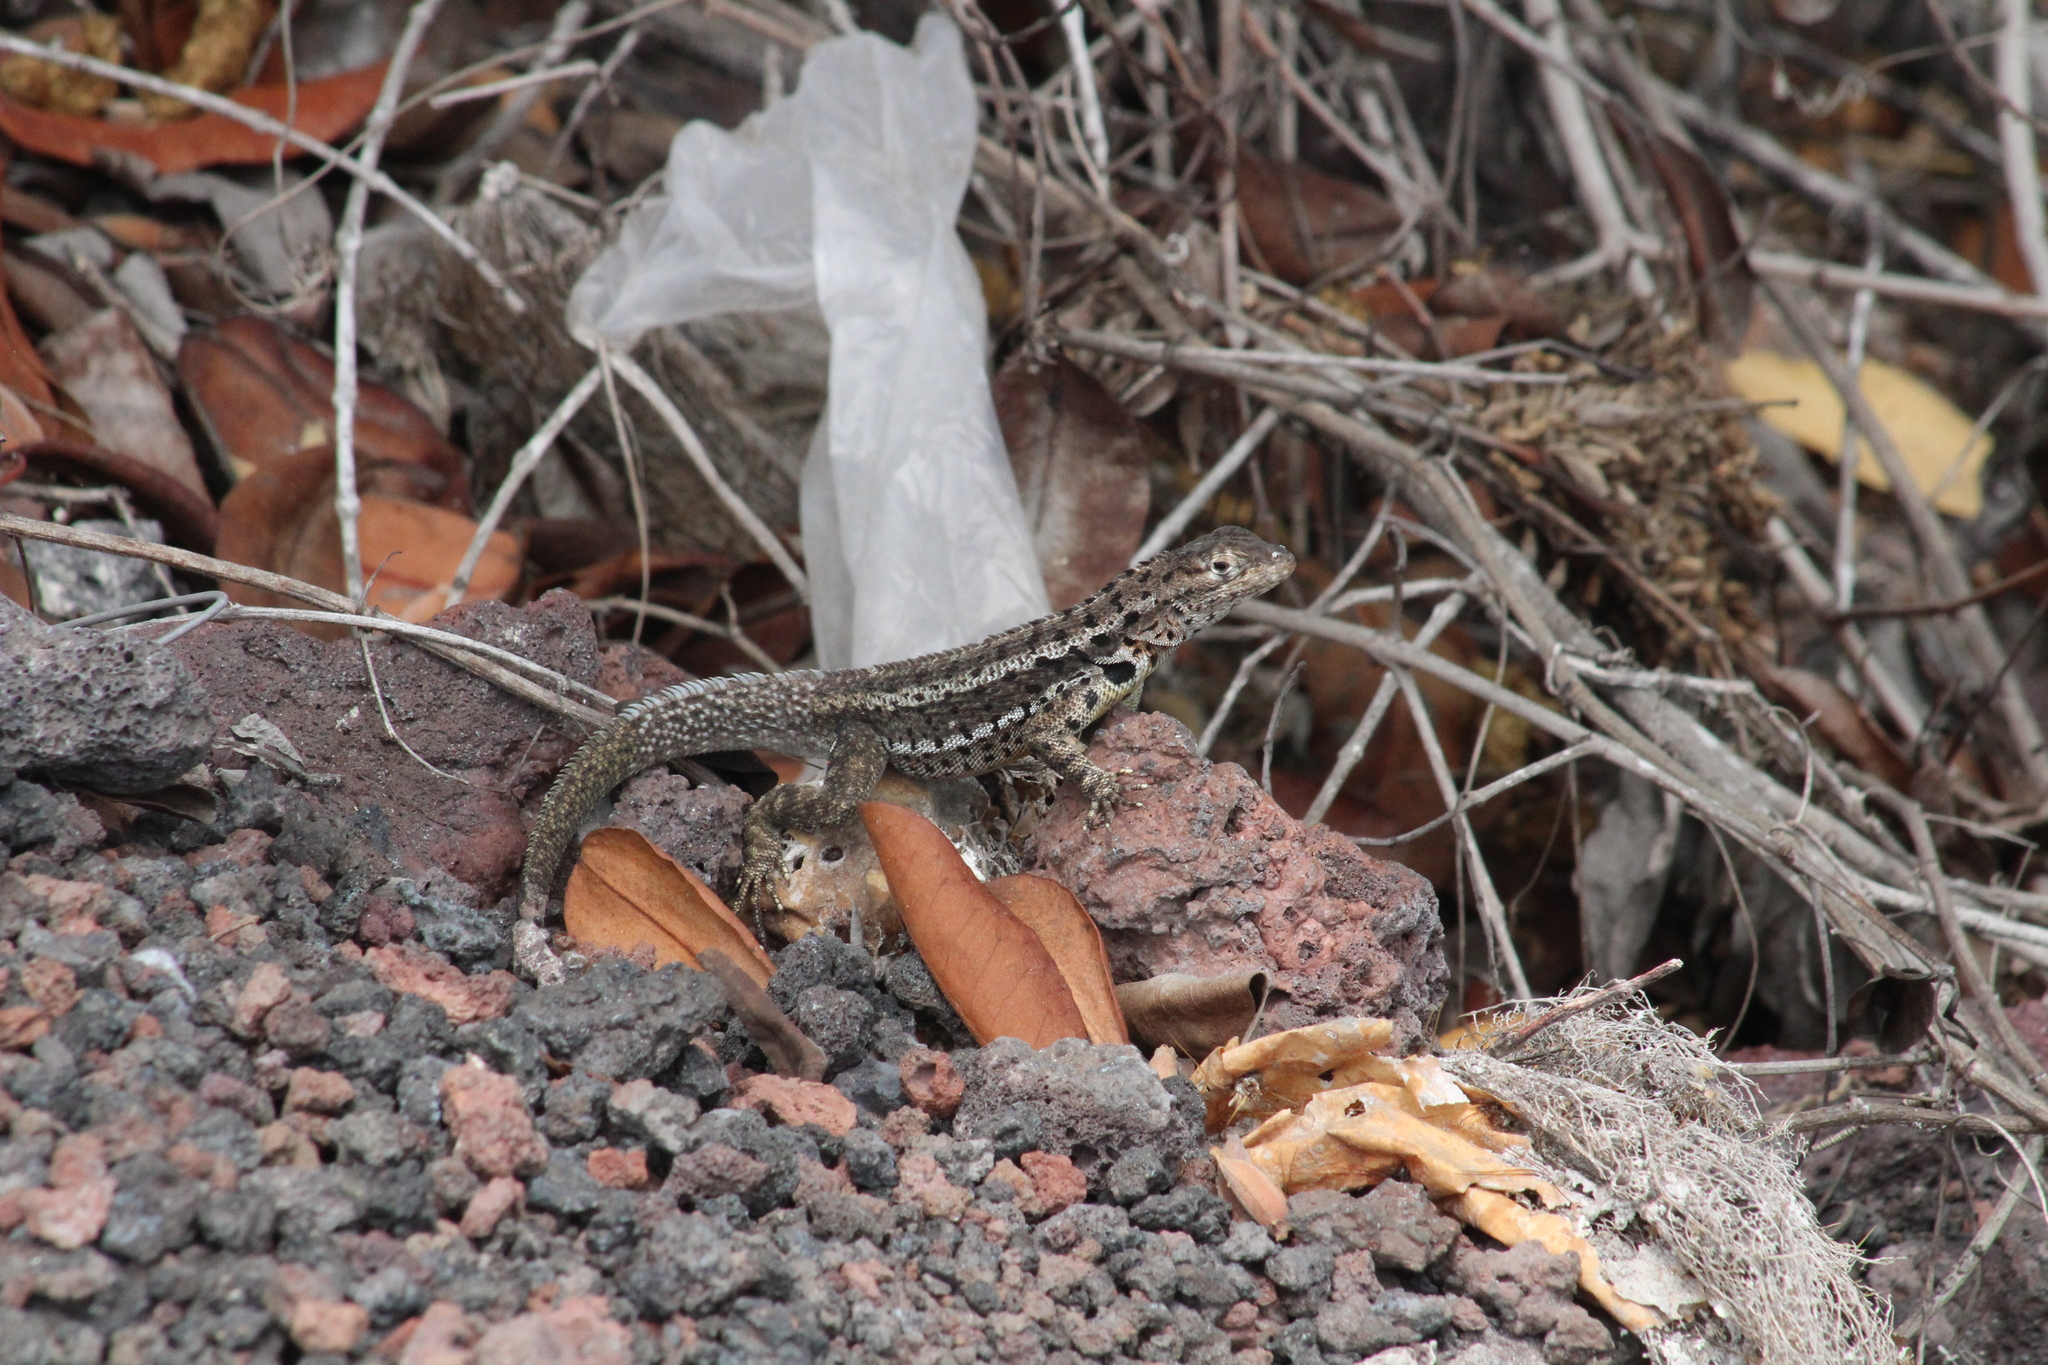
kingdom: Animalia
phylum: Chordata
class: Squamata
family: Tropiduridae
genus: Microlophus
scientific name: Microlophus albemarlensis
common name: Galapagos lava lizard
